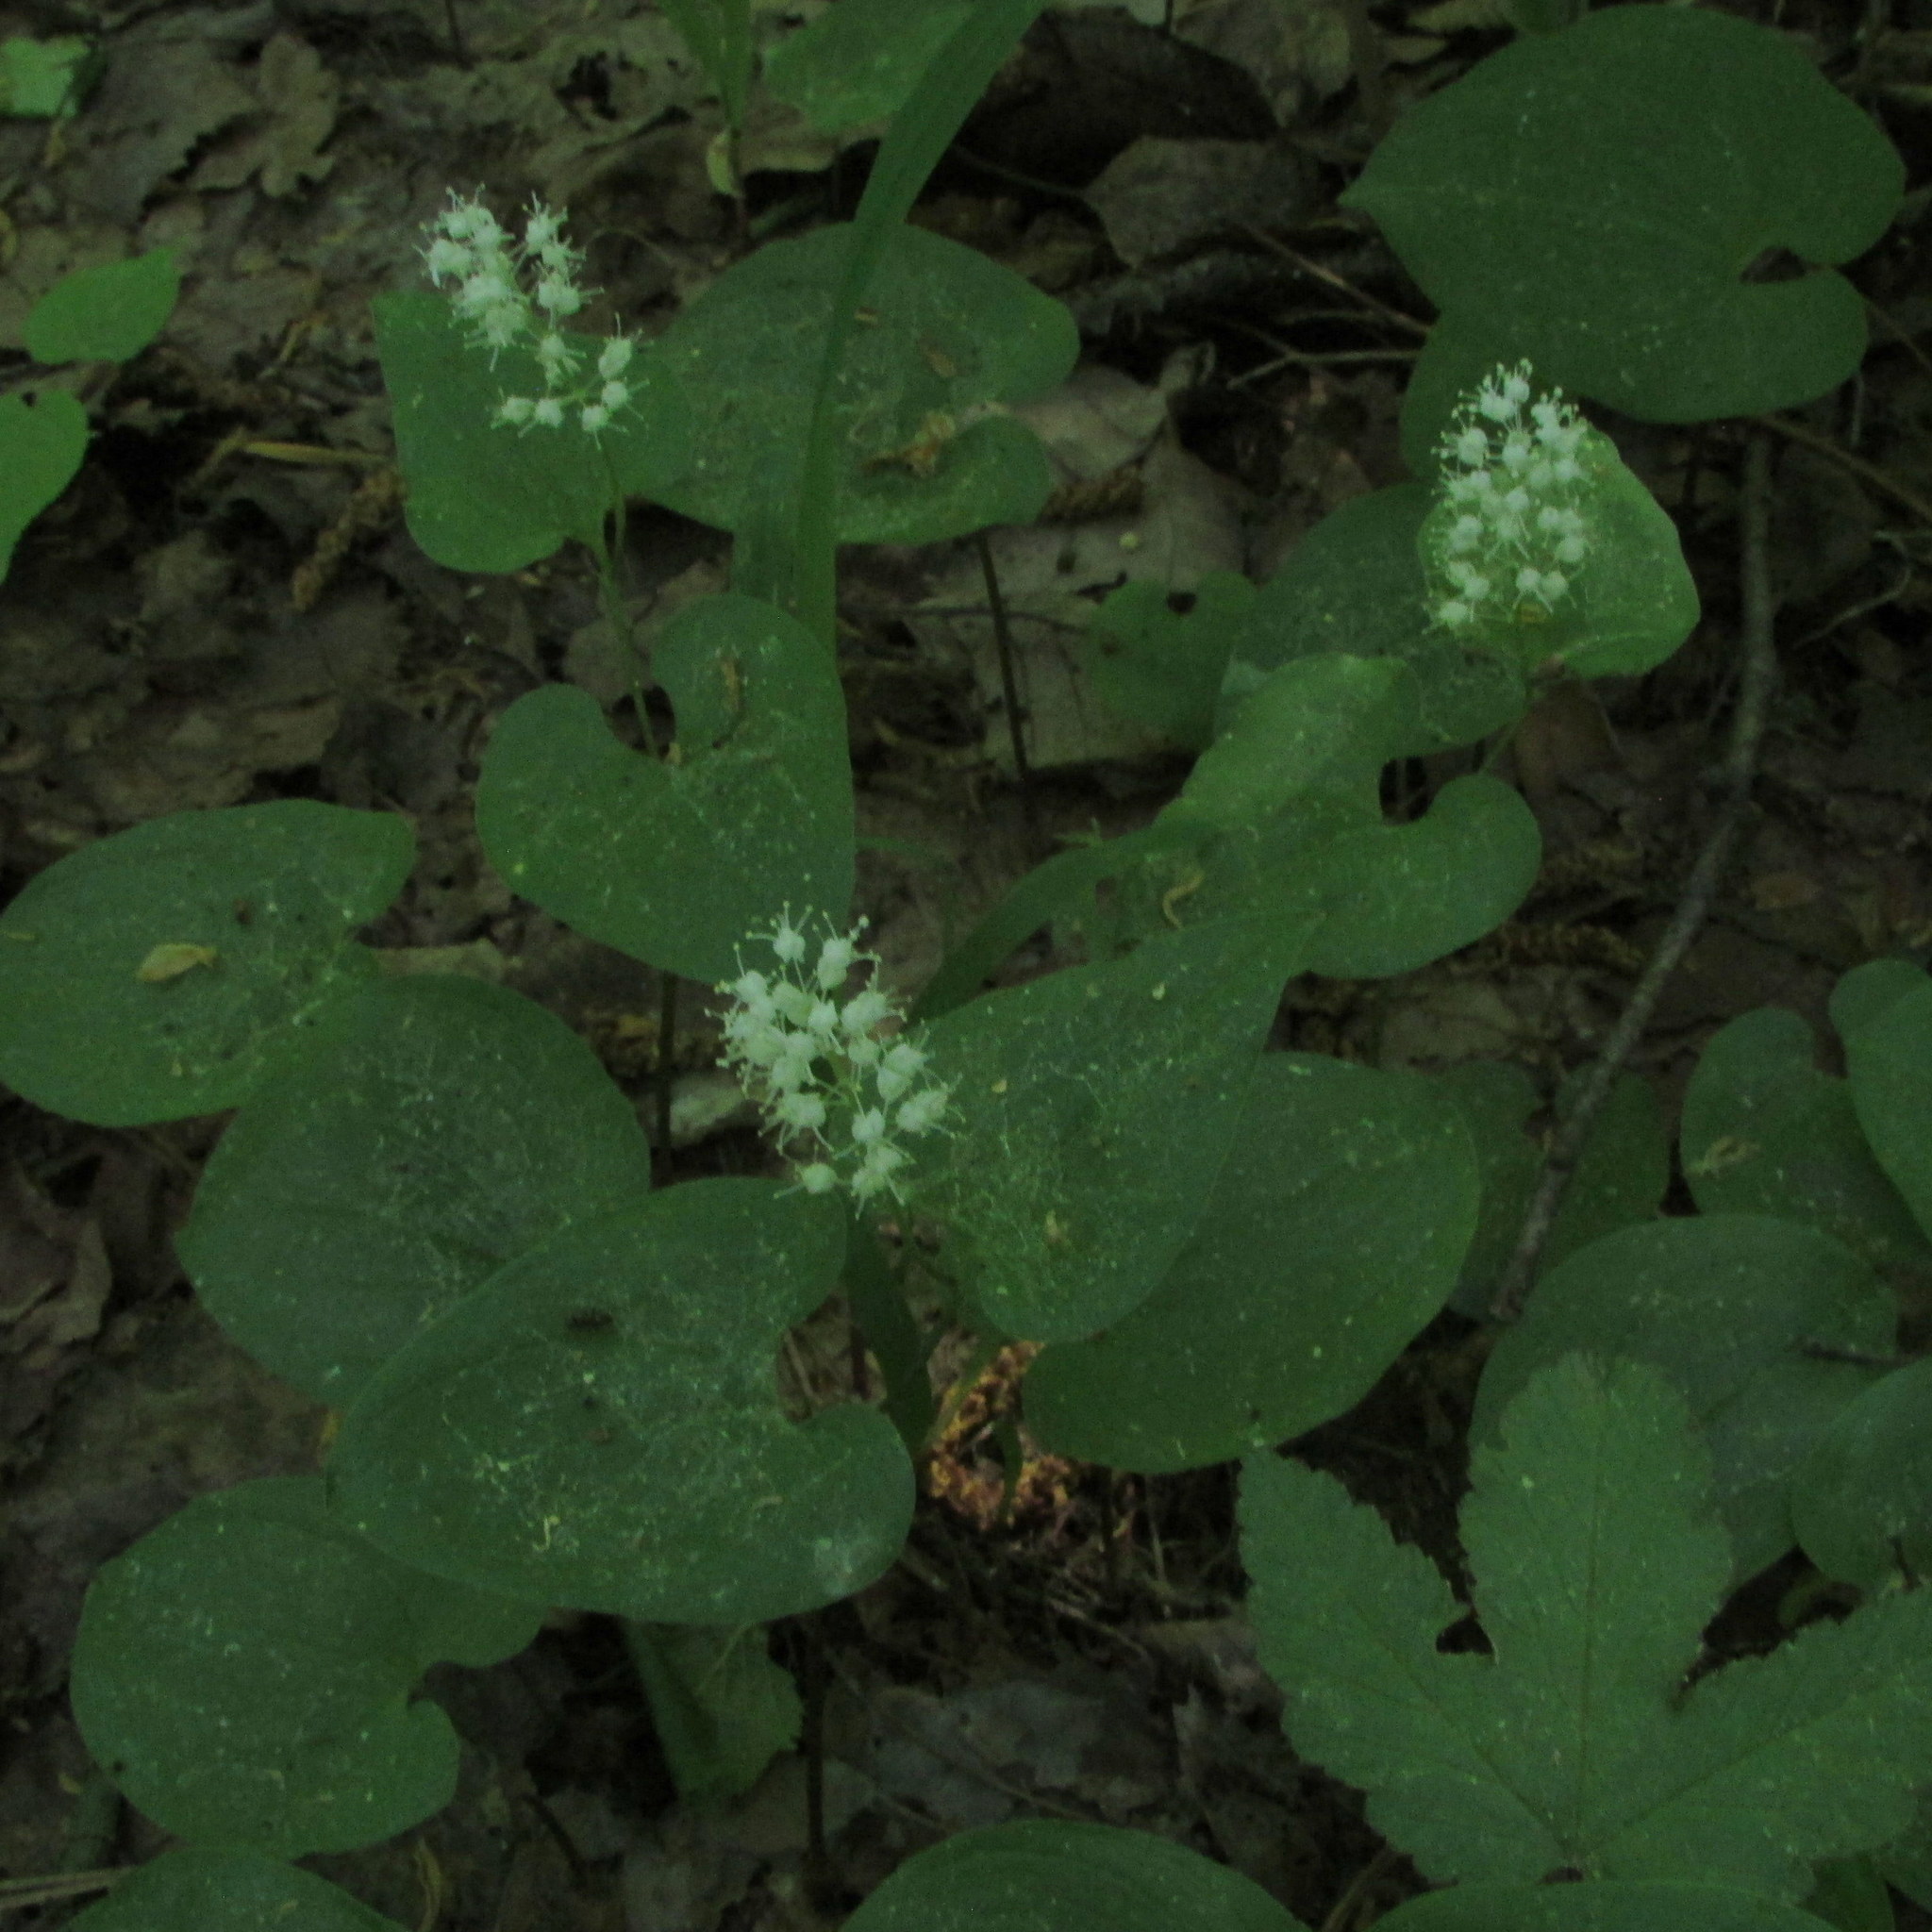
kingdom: Plantae
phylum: Tracheophyta
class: Liliopsida
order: Asparagales
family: Asparagaceae
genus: Maianthemum
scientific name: Maianthemum bifolium
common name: May lily
